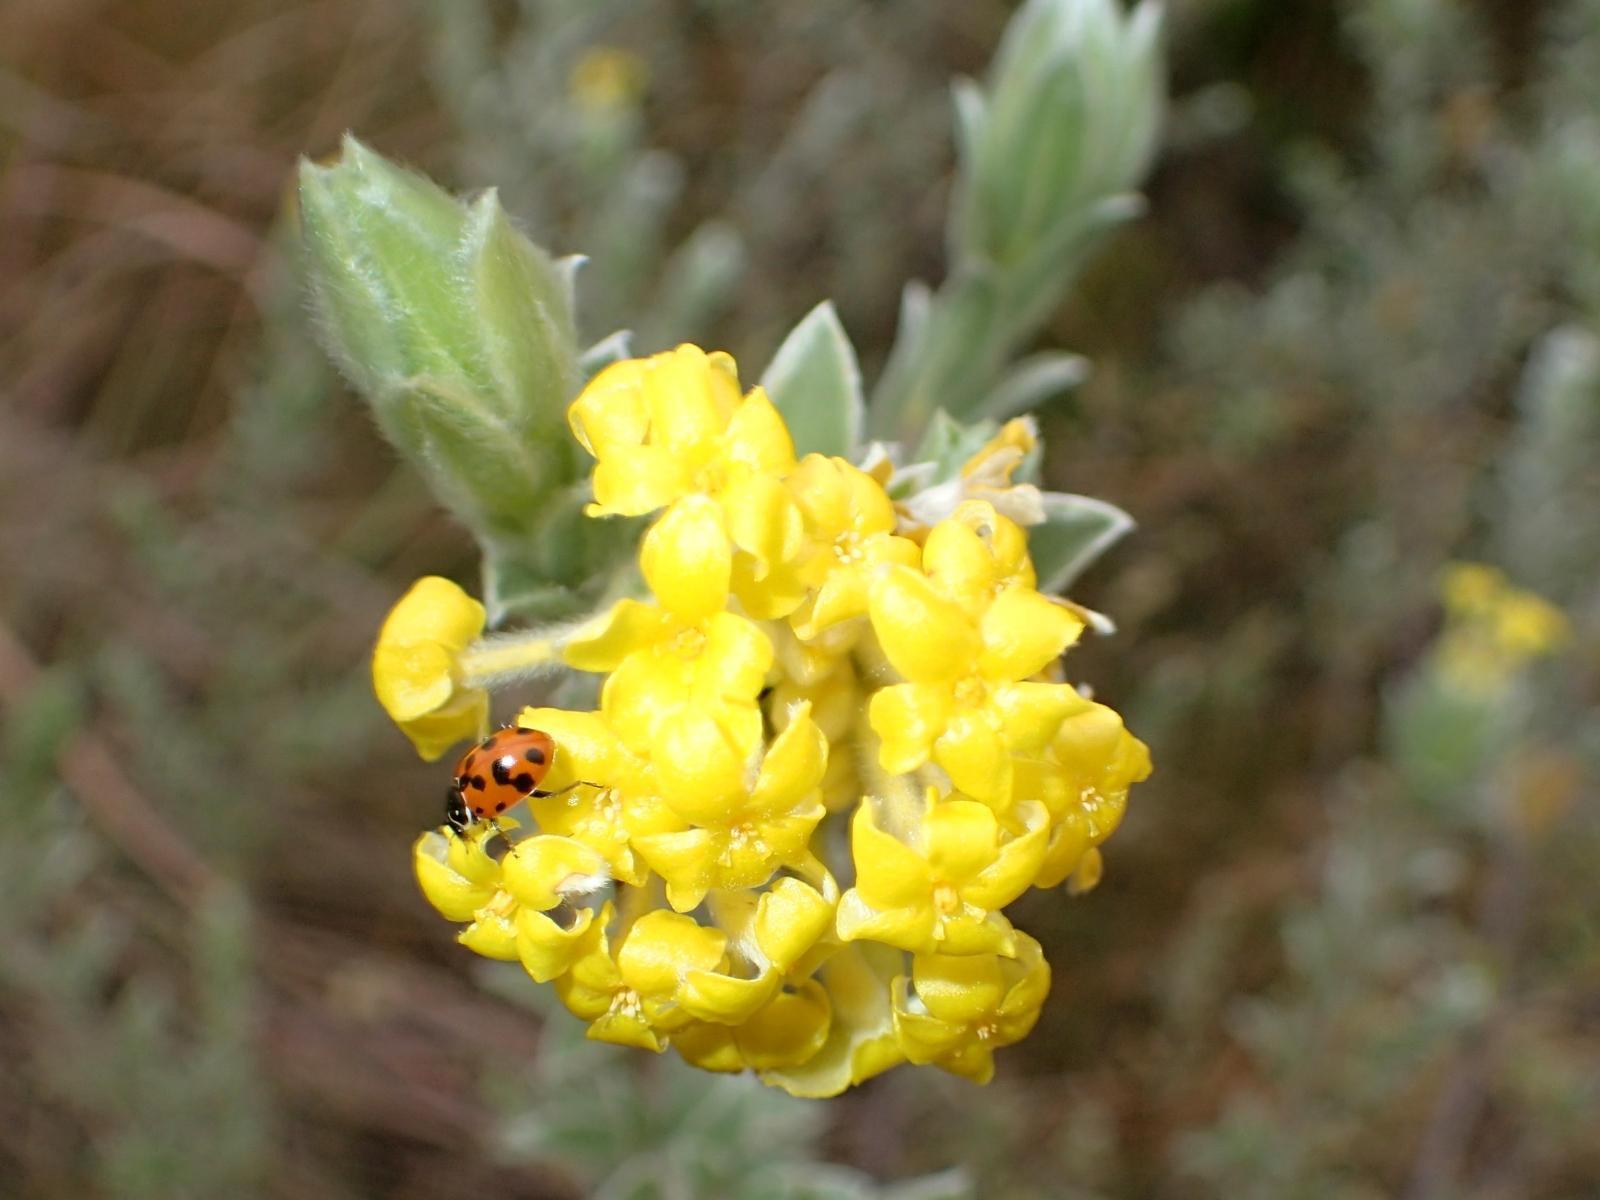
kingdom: Animalia
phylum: Arthropoda
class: Insecta
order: Coleoptera
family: Coccinellidae
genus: Hippodamia
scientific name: Hippodamia variegata
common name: Ladybird beetle
